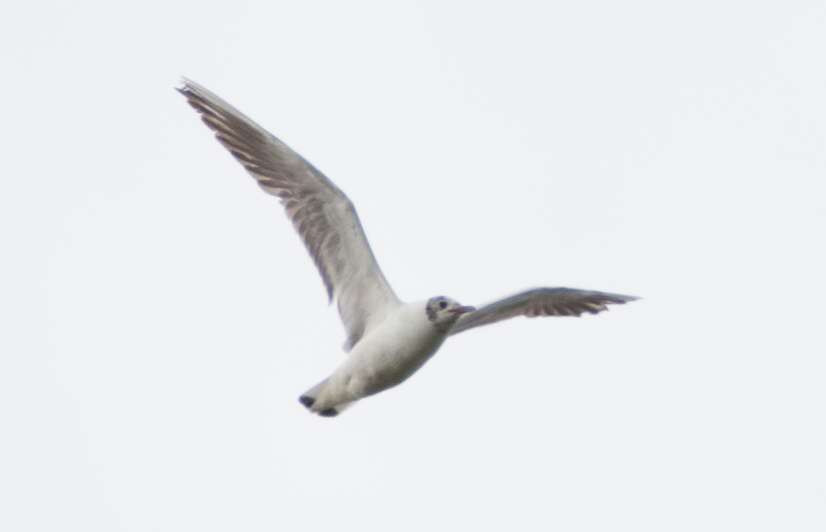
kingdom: Animalia
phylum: Chordata
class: Aves
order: Charadriiformes
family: Laridae
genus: Chroicocephalus
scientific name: Chroicocephalus ridibundus
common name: Black-headed gull
